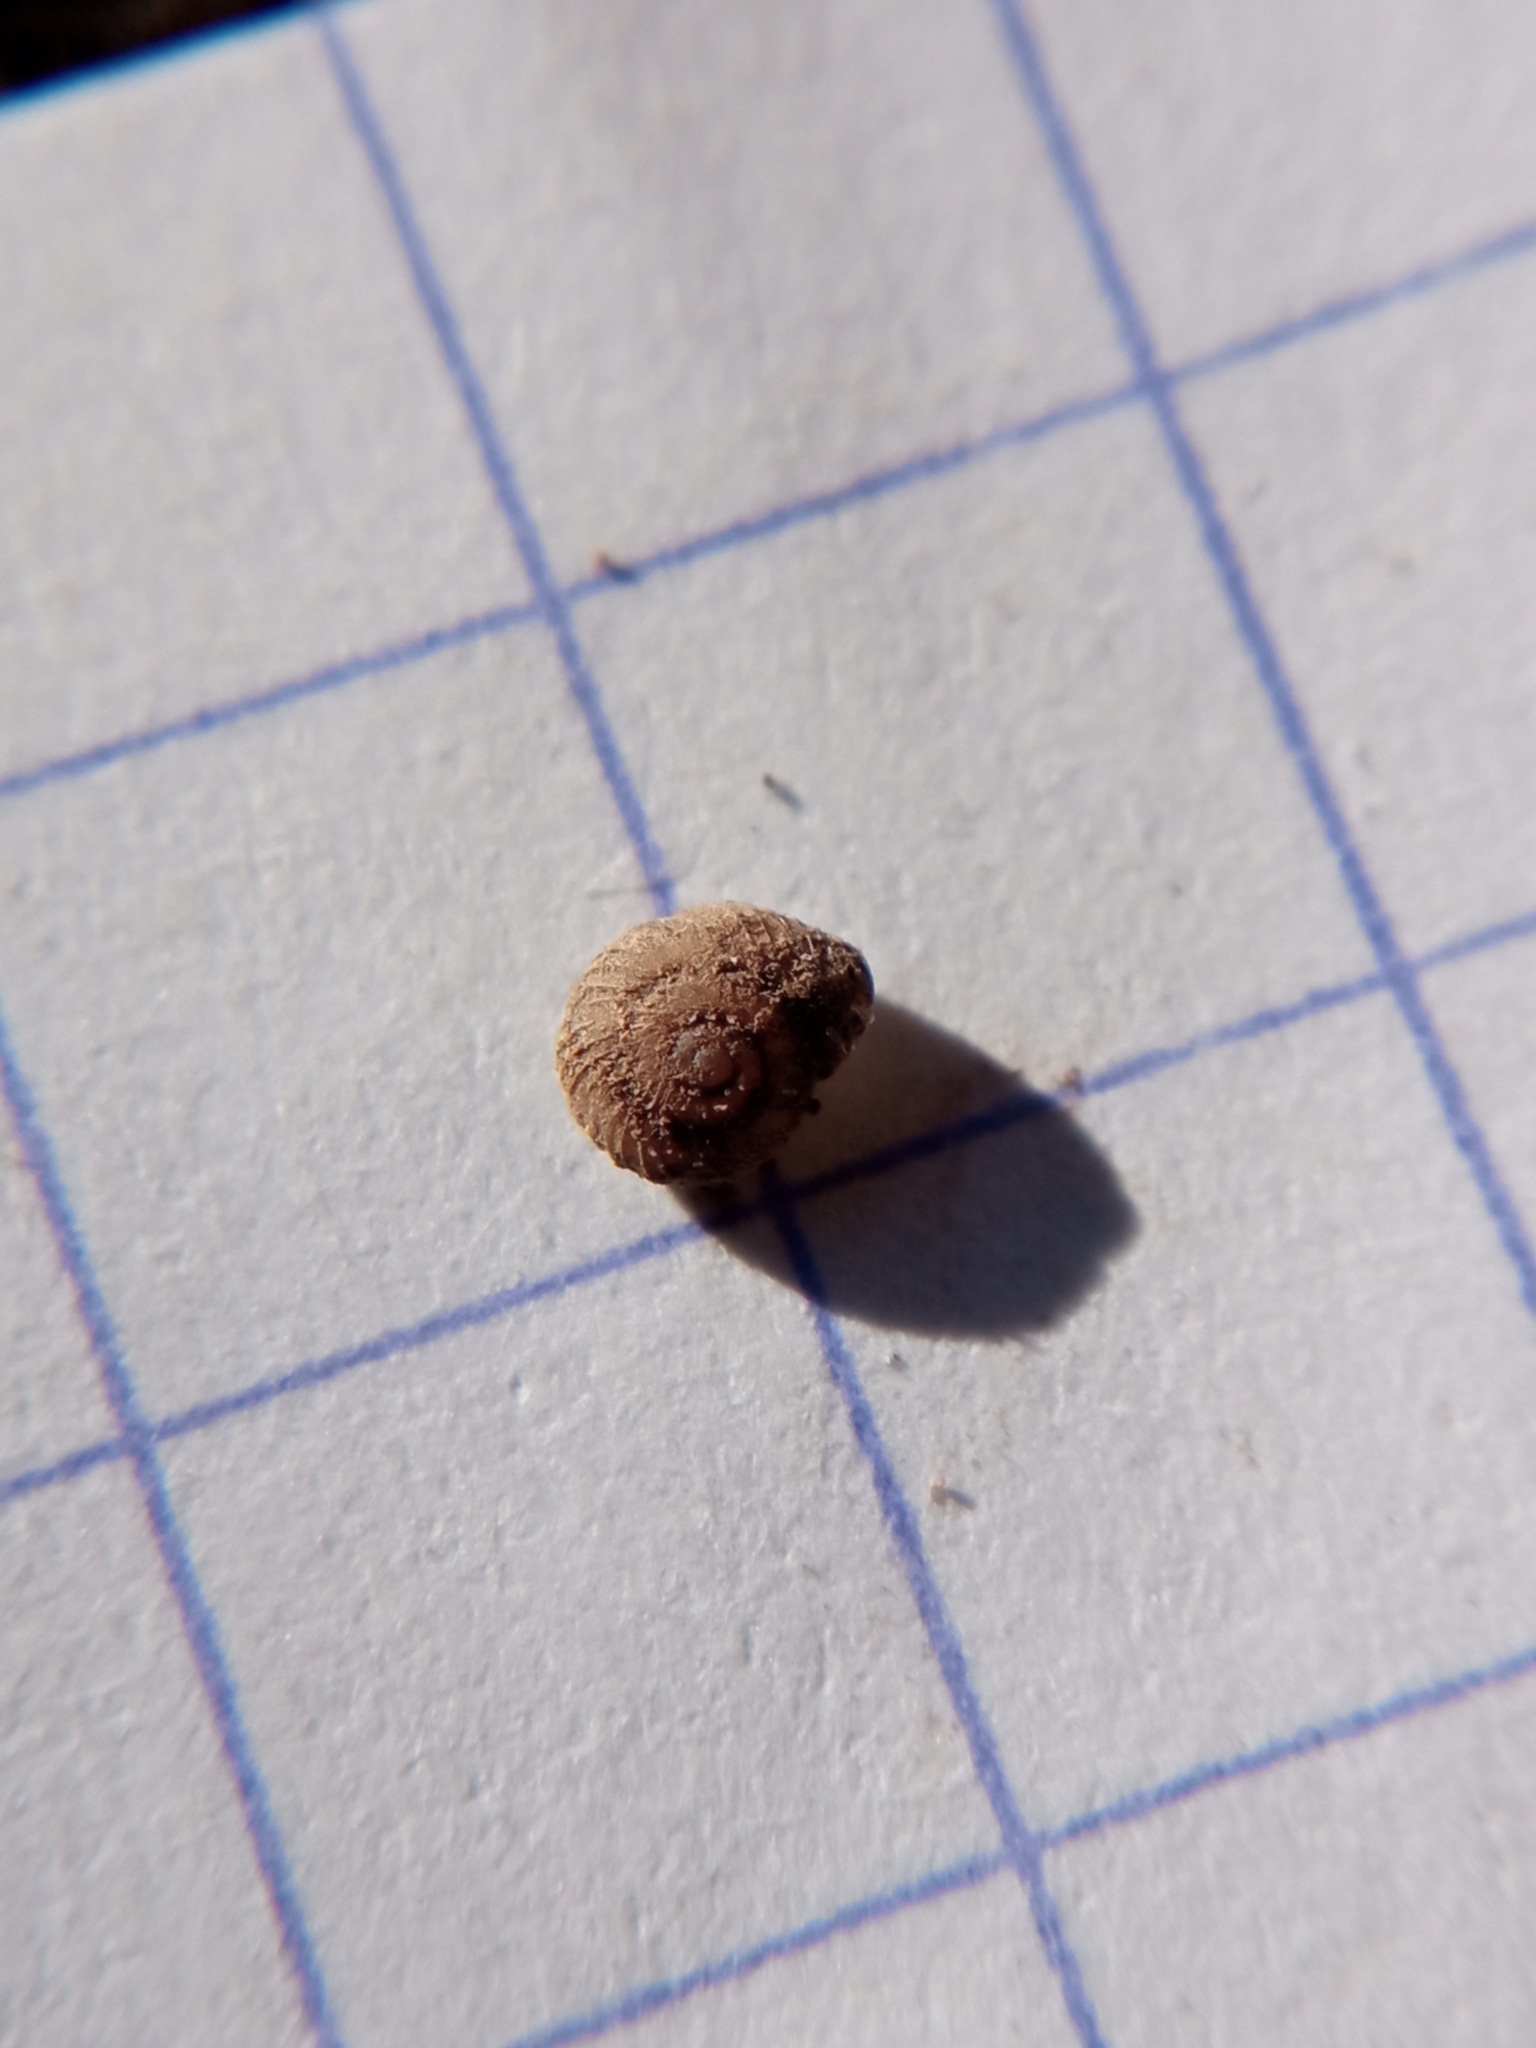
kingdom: Animalia
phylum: Mollusca
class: Gastropoda
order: Stylommatophora
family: Valloniidae
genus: Vallonia
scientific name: Vallonia costata
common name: Ribbed grass snail
